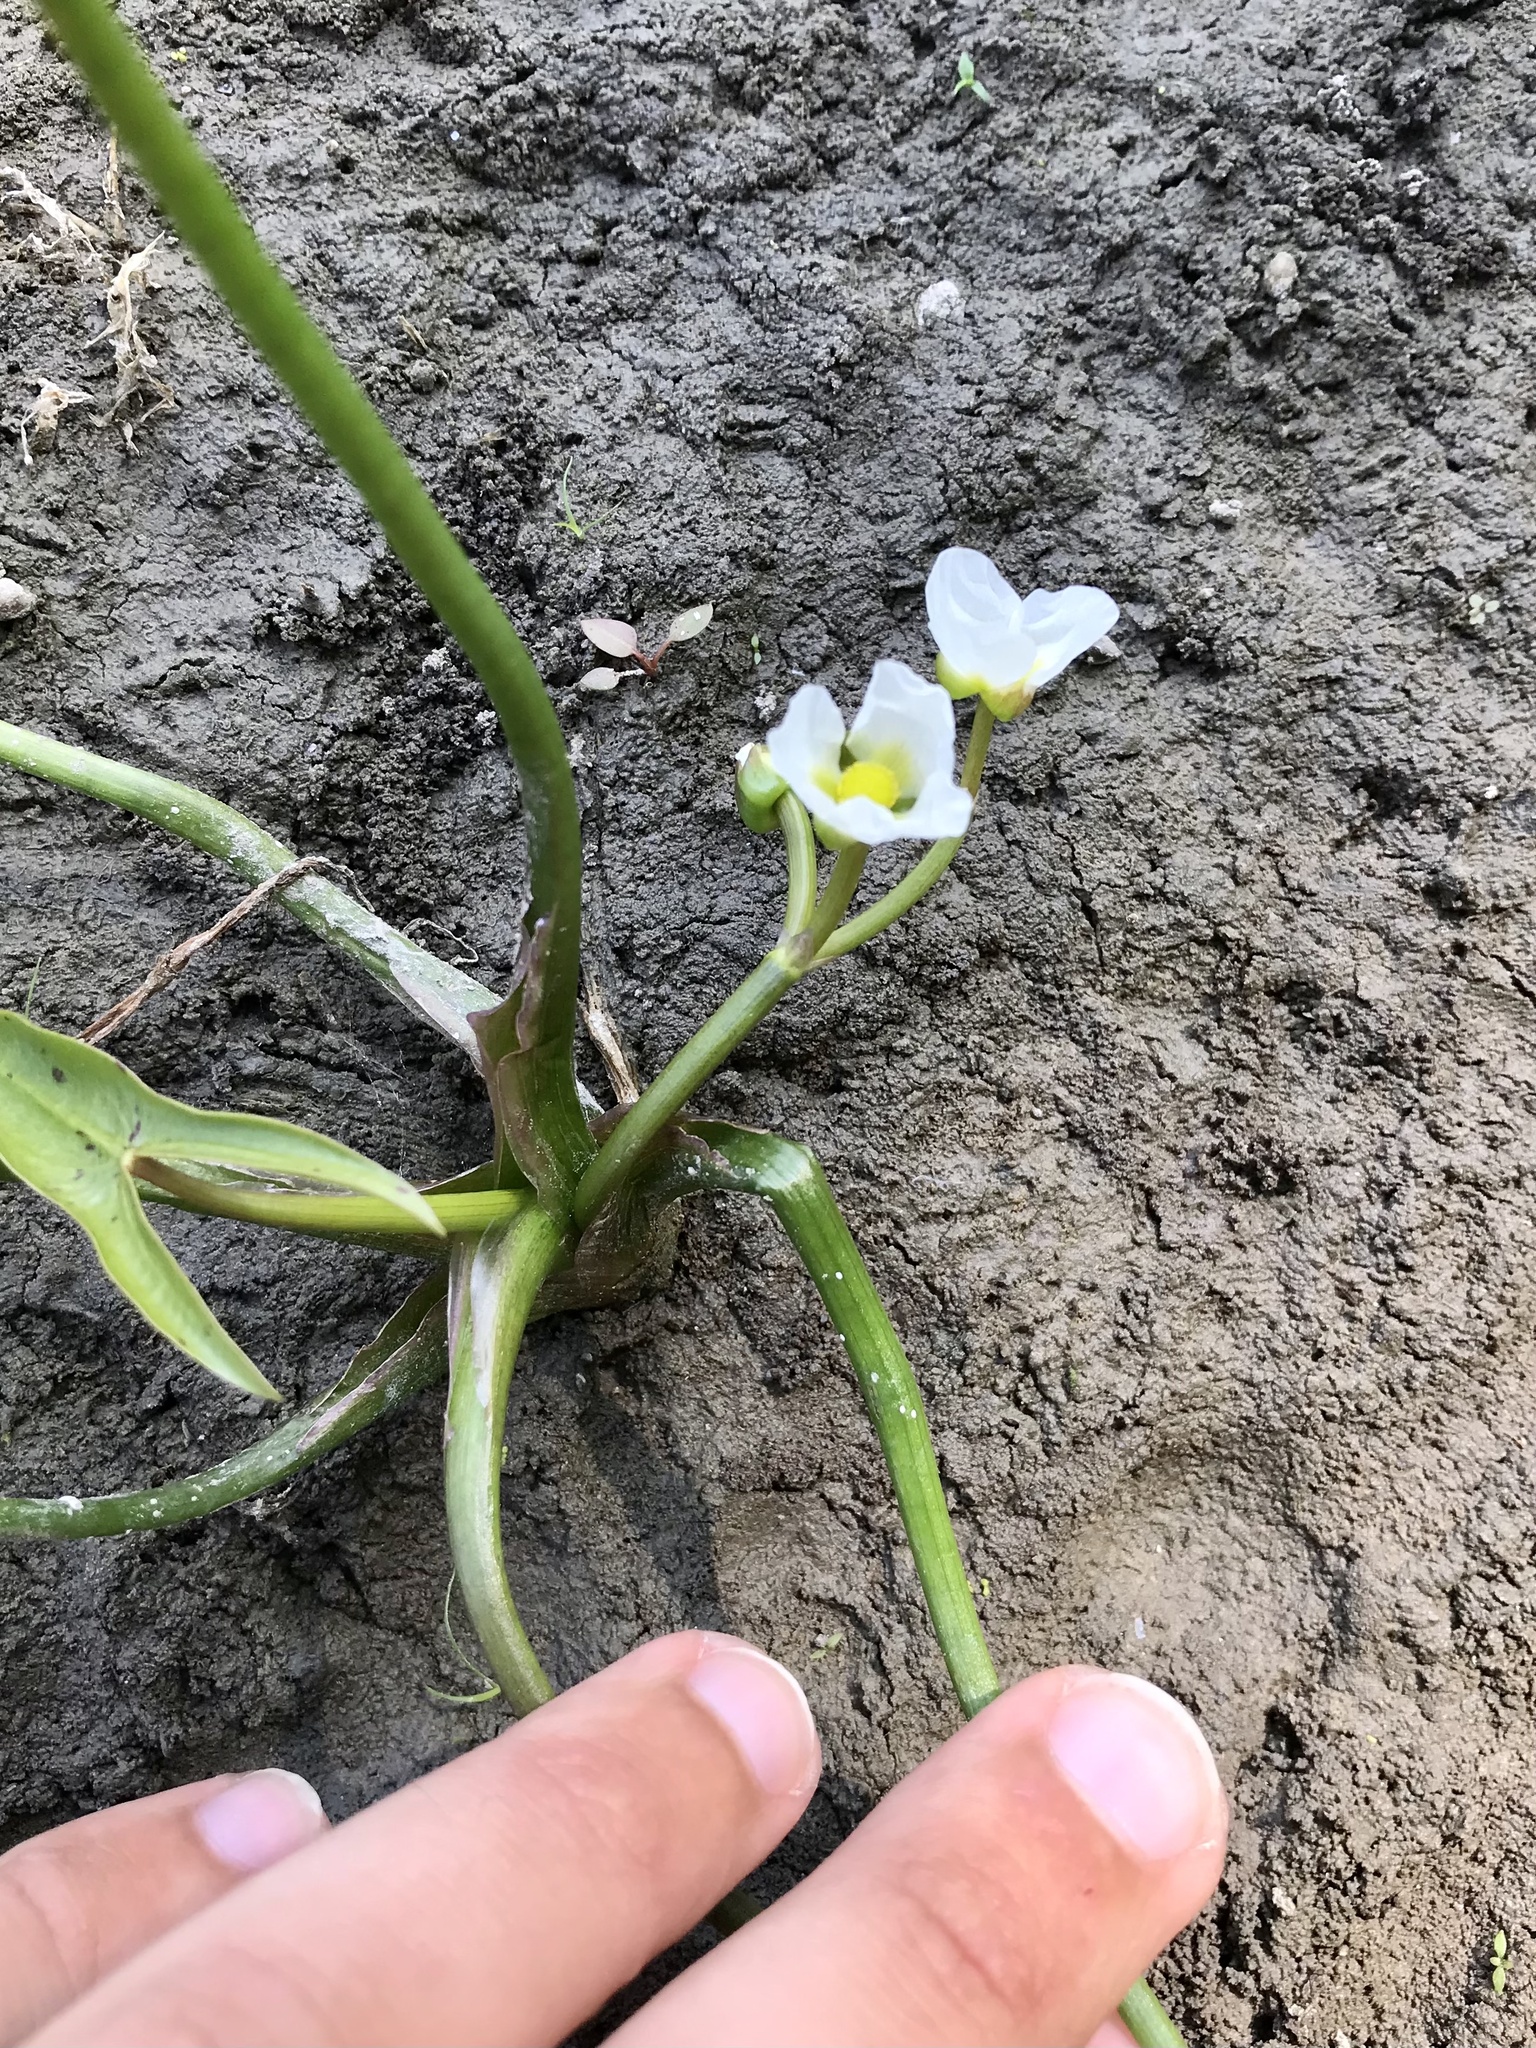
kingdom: Plantae
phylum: Tracheophyta
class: Liliopsida
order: Alismatales
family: Alismataceae
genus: Sagittaria
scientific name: Sagittaria calycina
